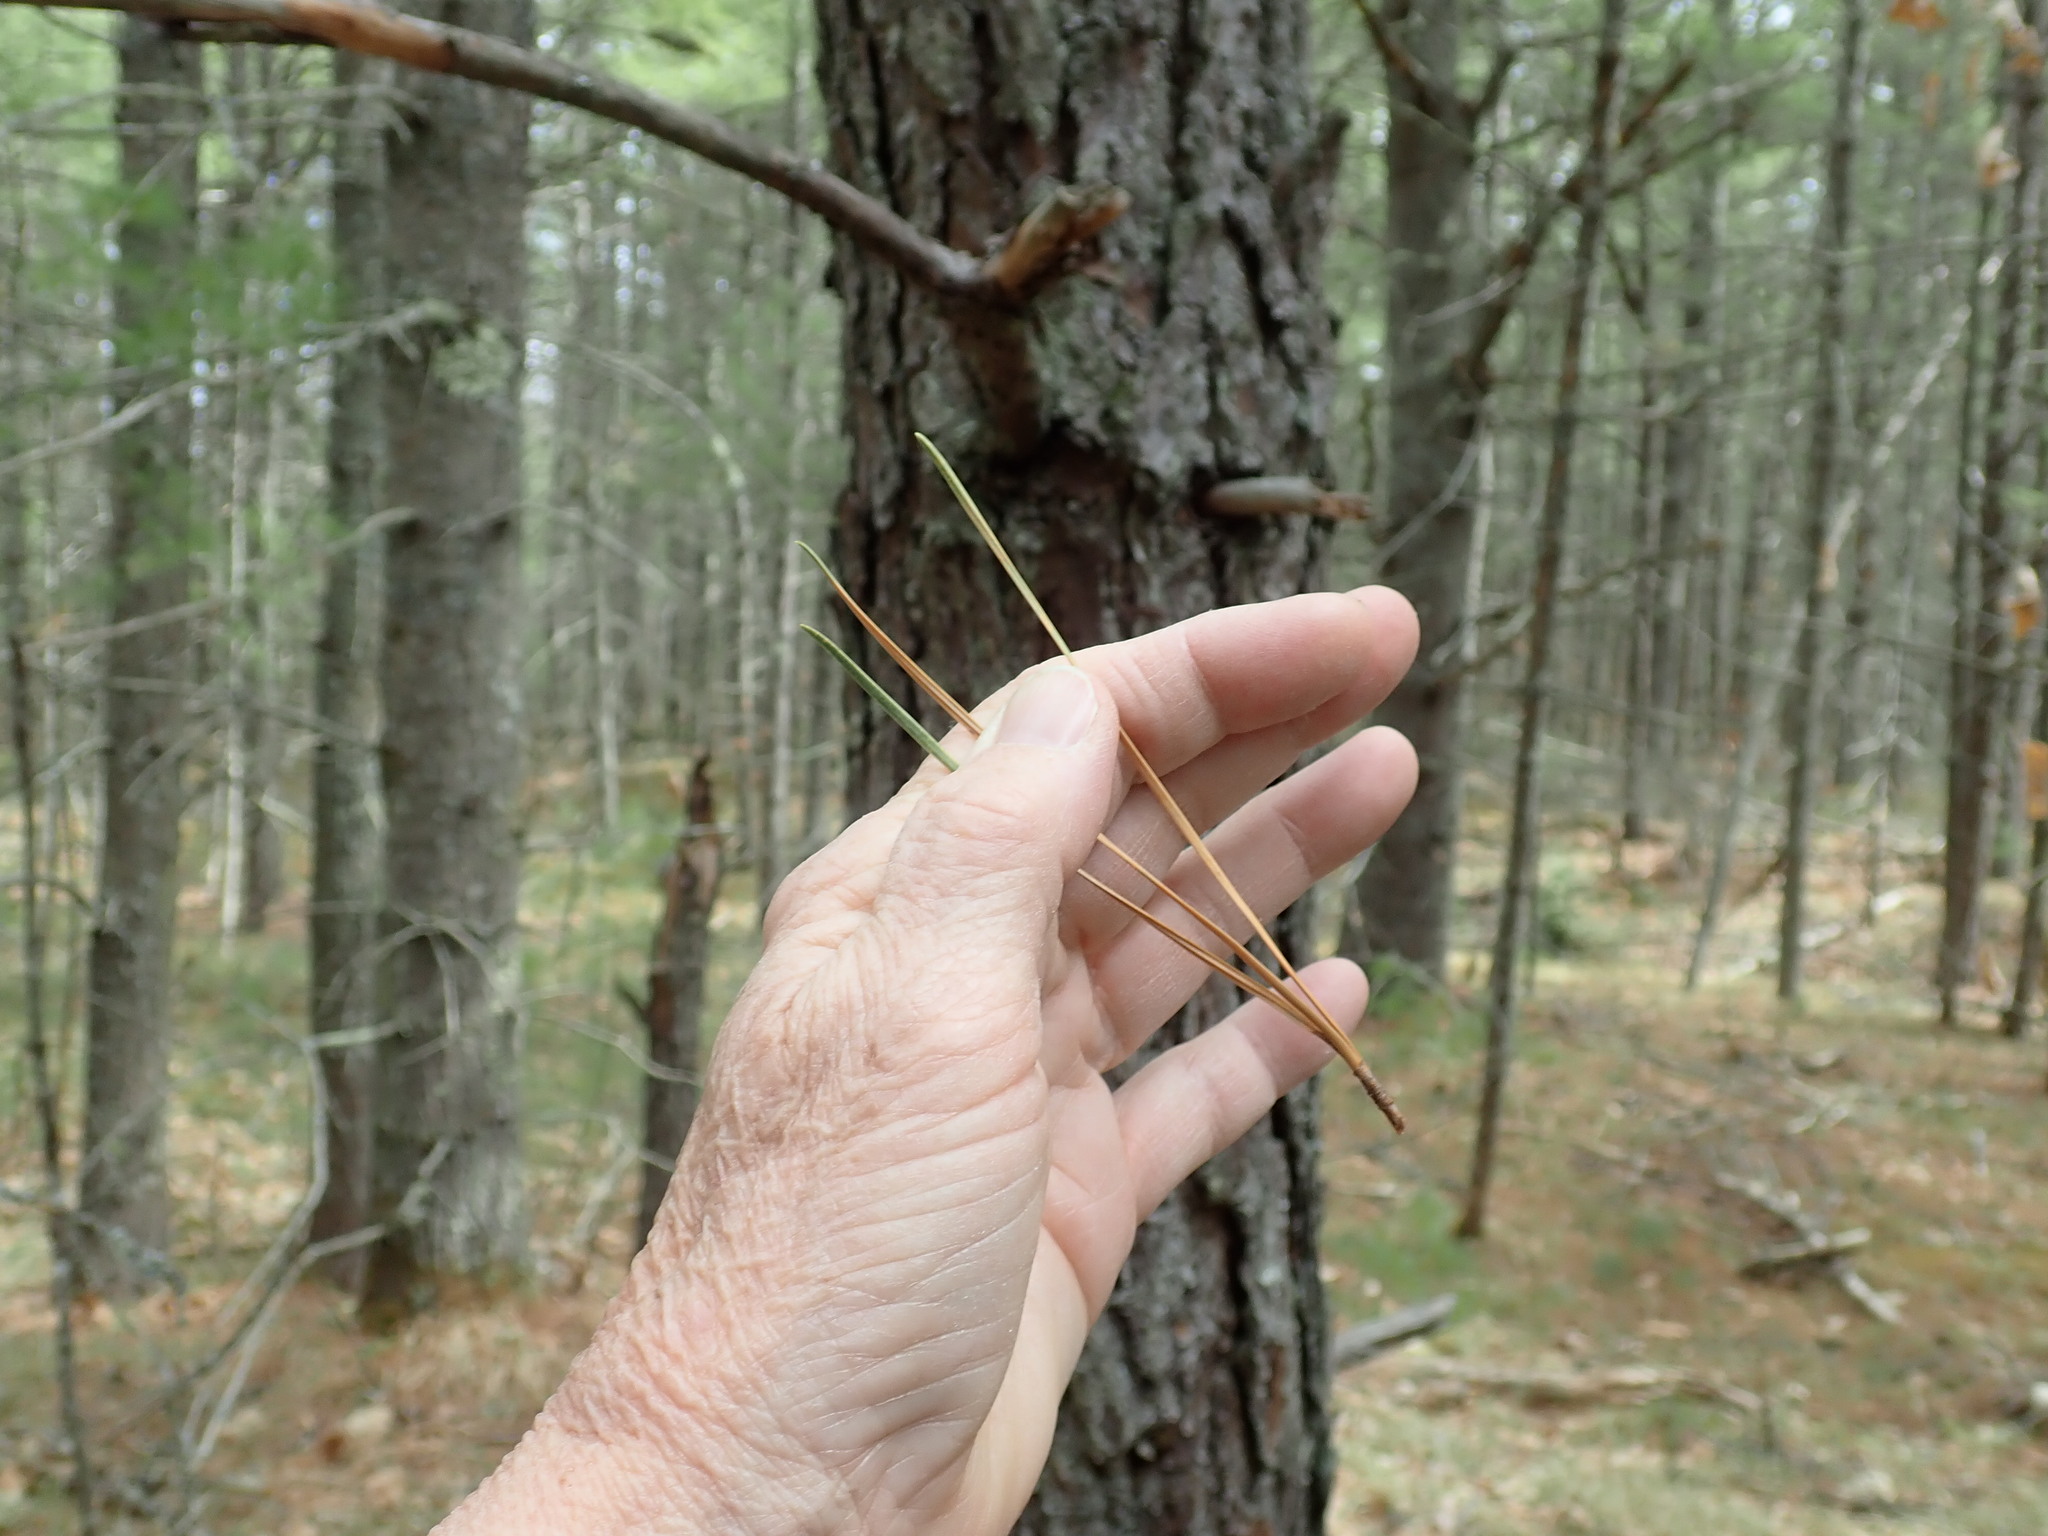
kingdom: Plantae
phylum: Tracheophyta
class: Pinopsida
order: Pinales
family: Pinaceae
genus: Pinus
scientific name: Pinus rigida
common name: Pitch pine
